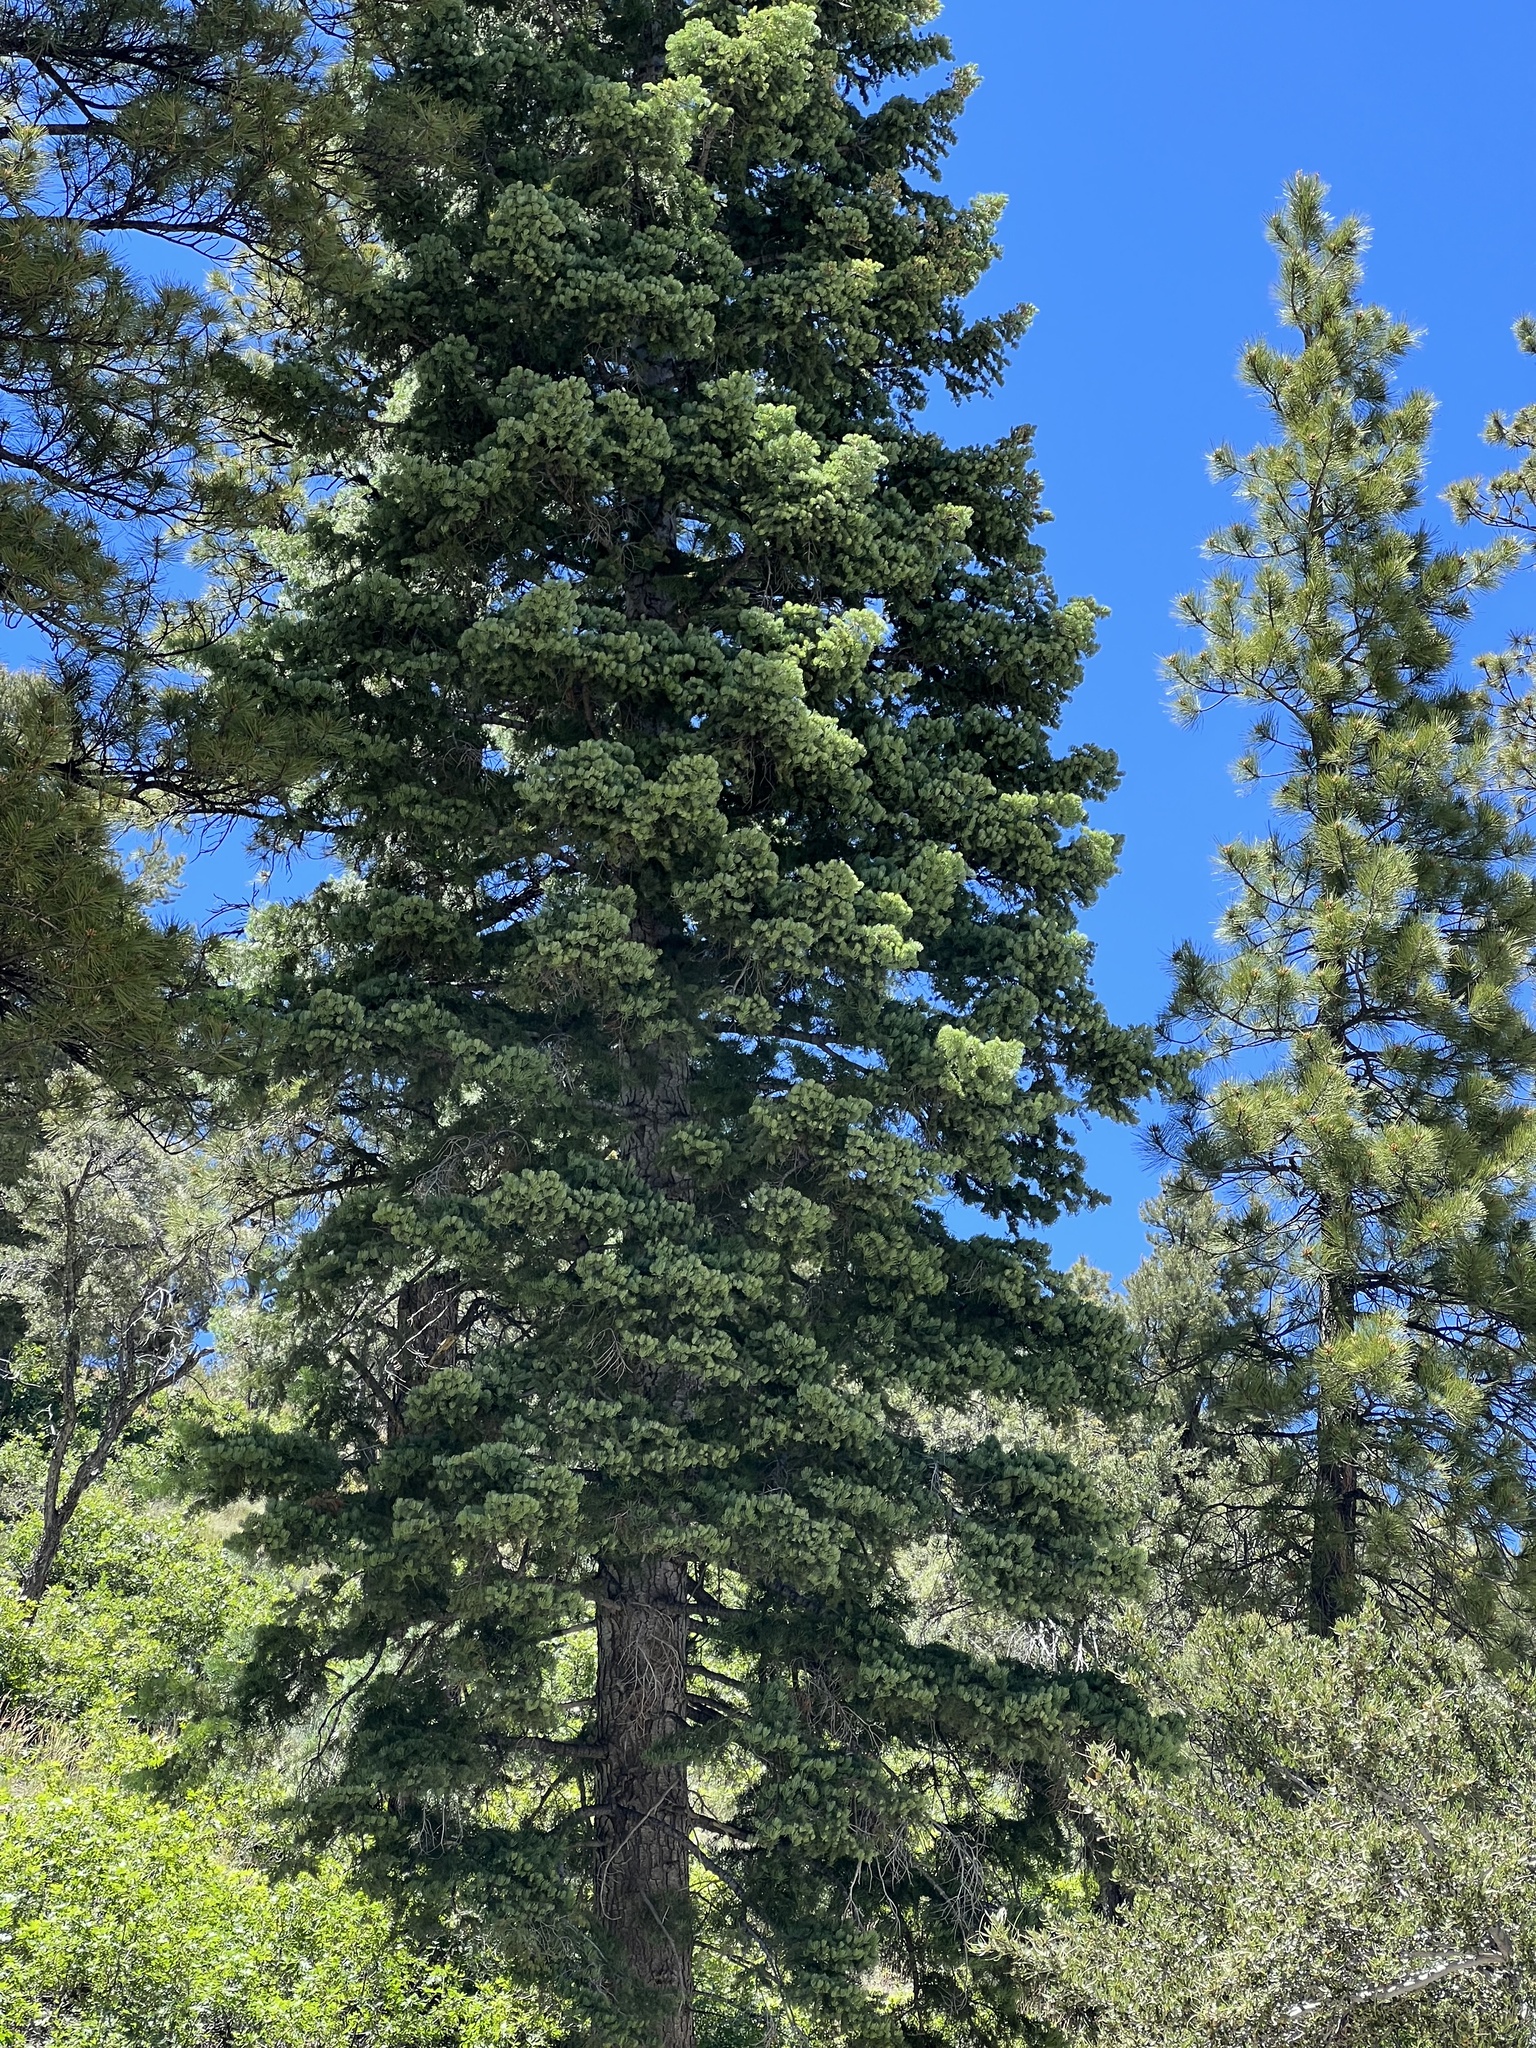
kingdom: Plantae
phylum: Tracheophyta
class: Pinopsida
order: Pinales
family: Pinaceae
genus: Abies
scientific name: Abies concolor
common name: Colorado fir
